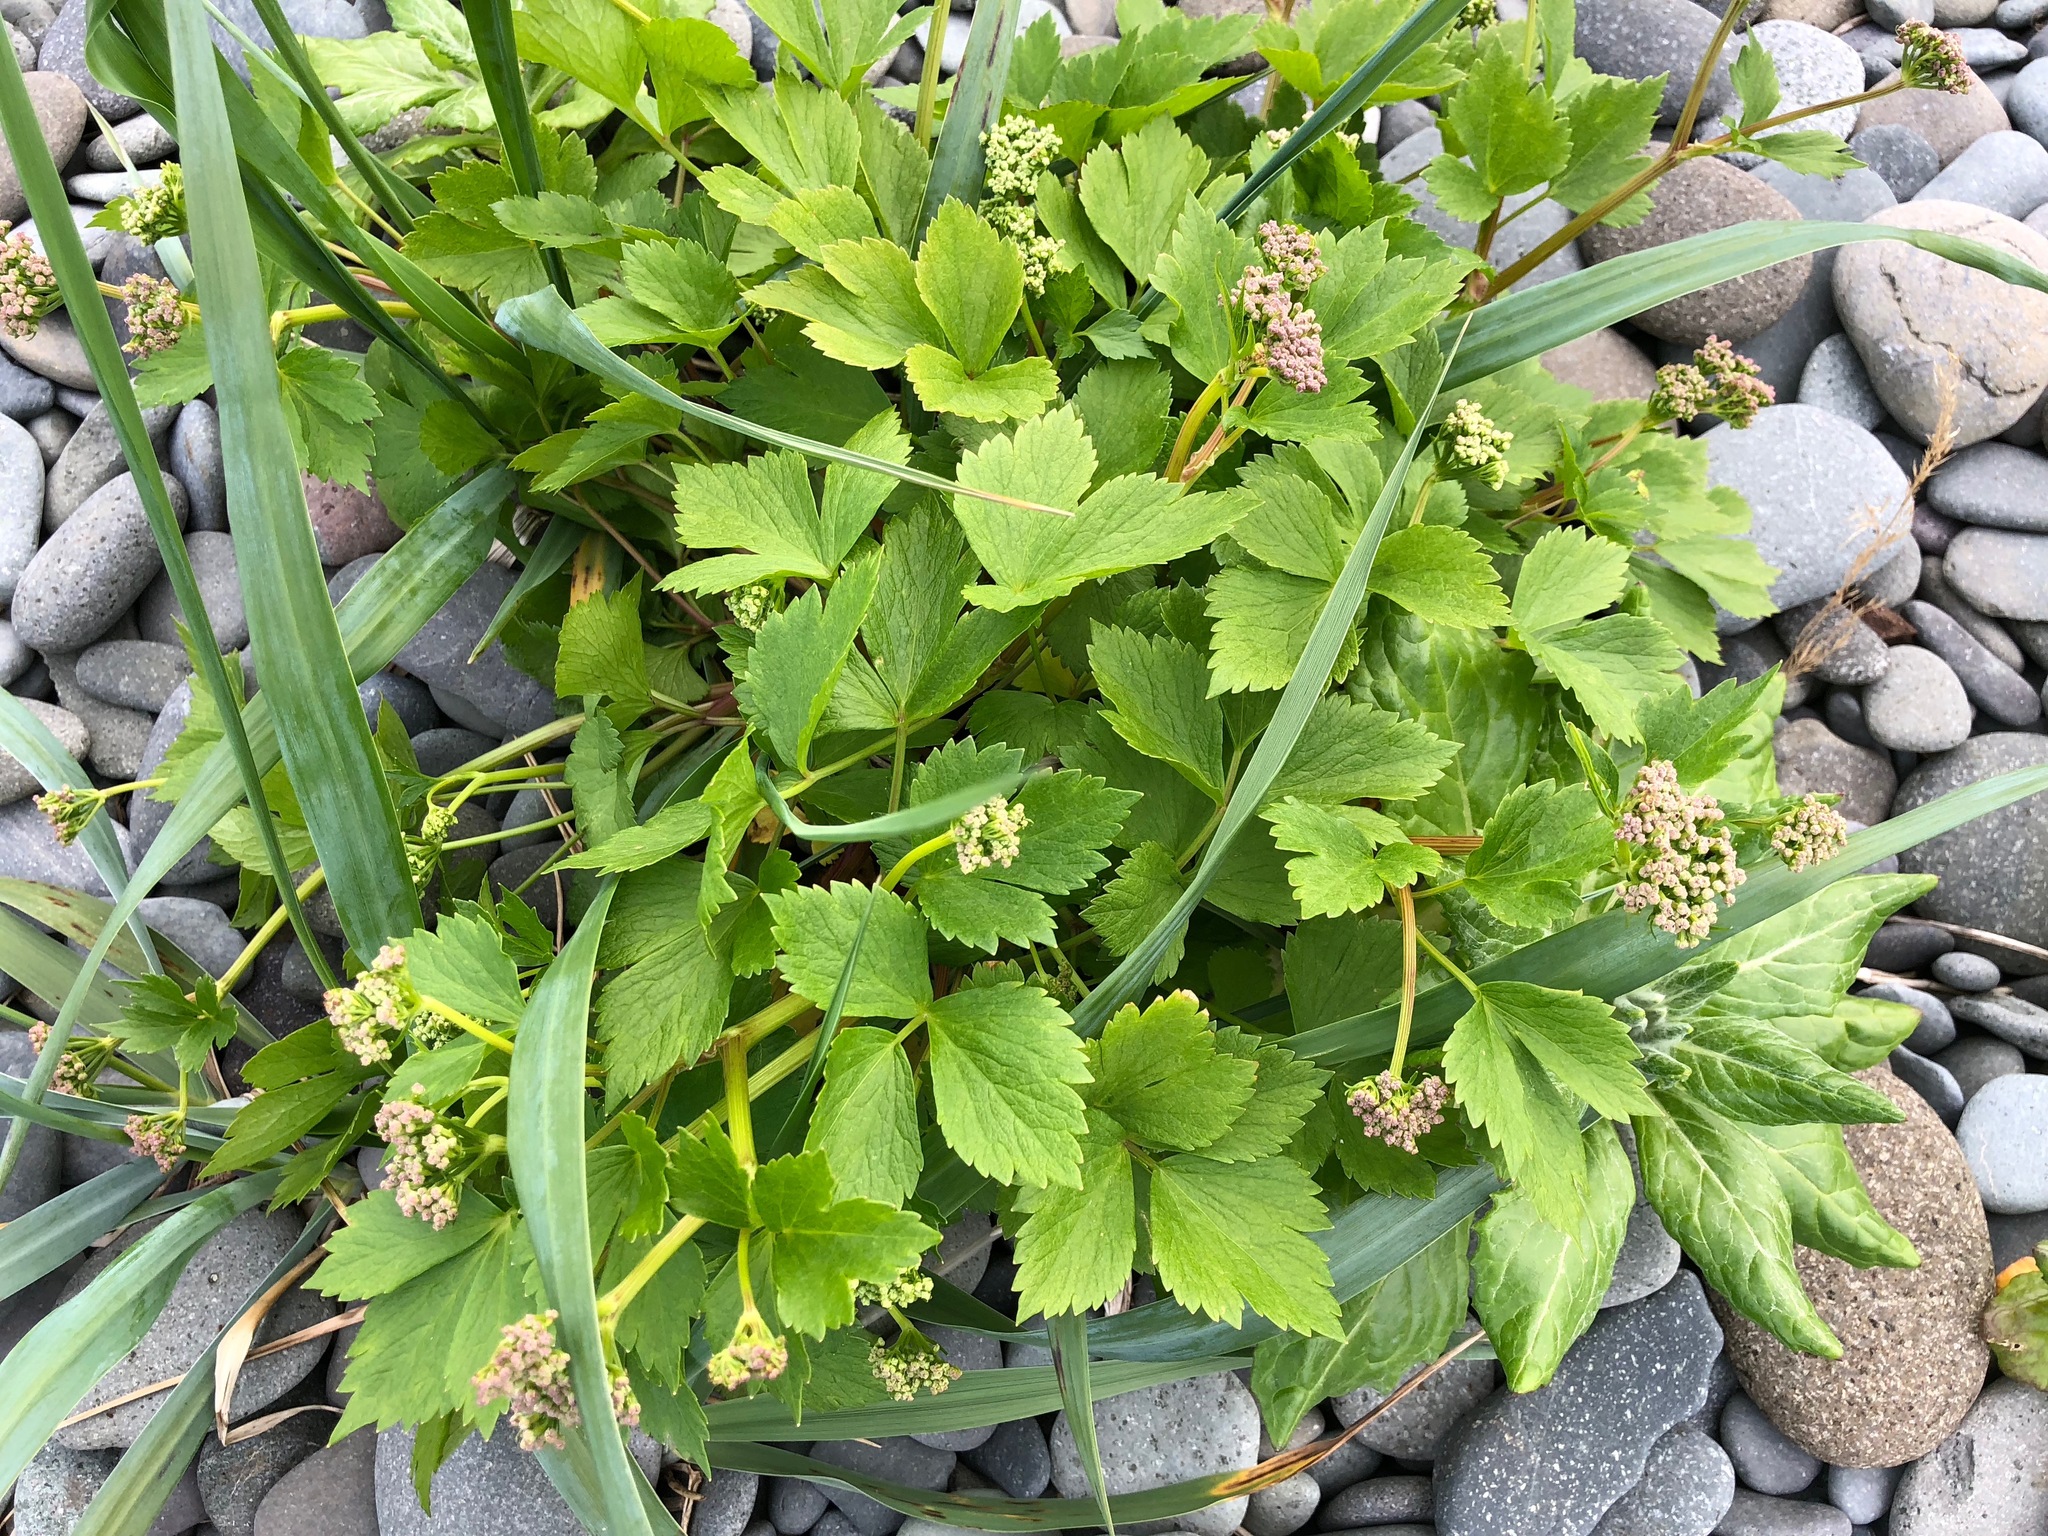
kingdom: Plantae
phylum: Tracheophyta
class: Magnoliopsida
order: Apiales
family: Apiaceae
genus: Ligusticum
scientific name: Ligusticum scothicum
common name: Beach lovage
